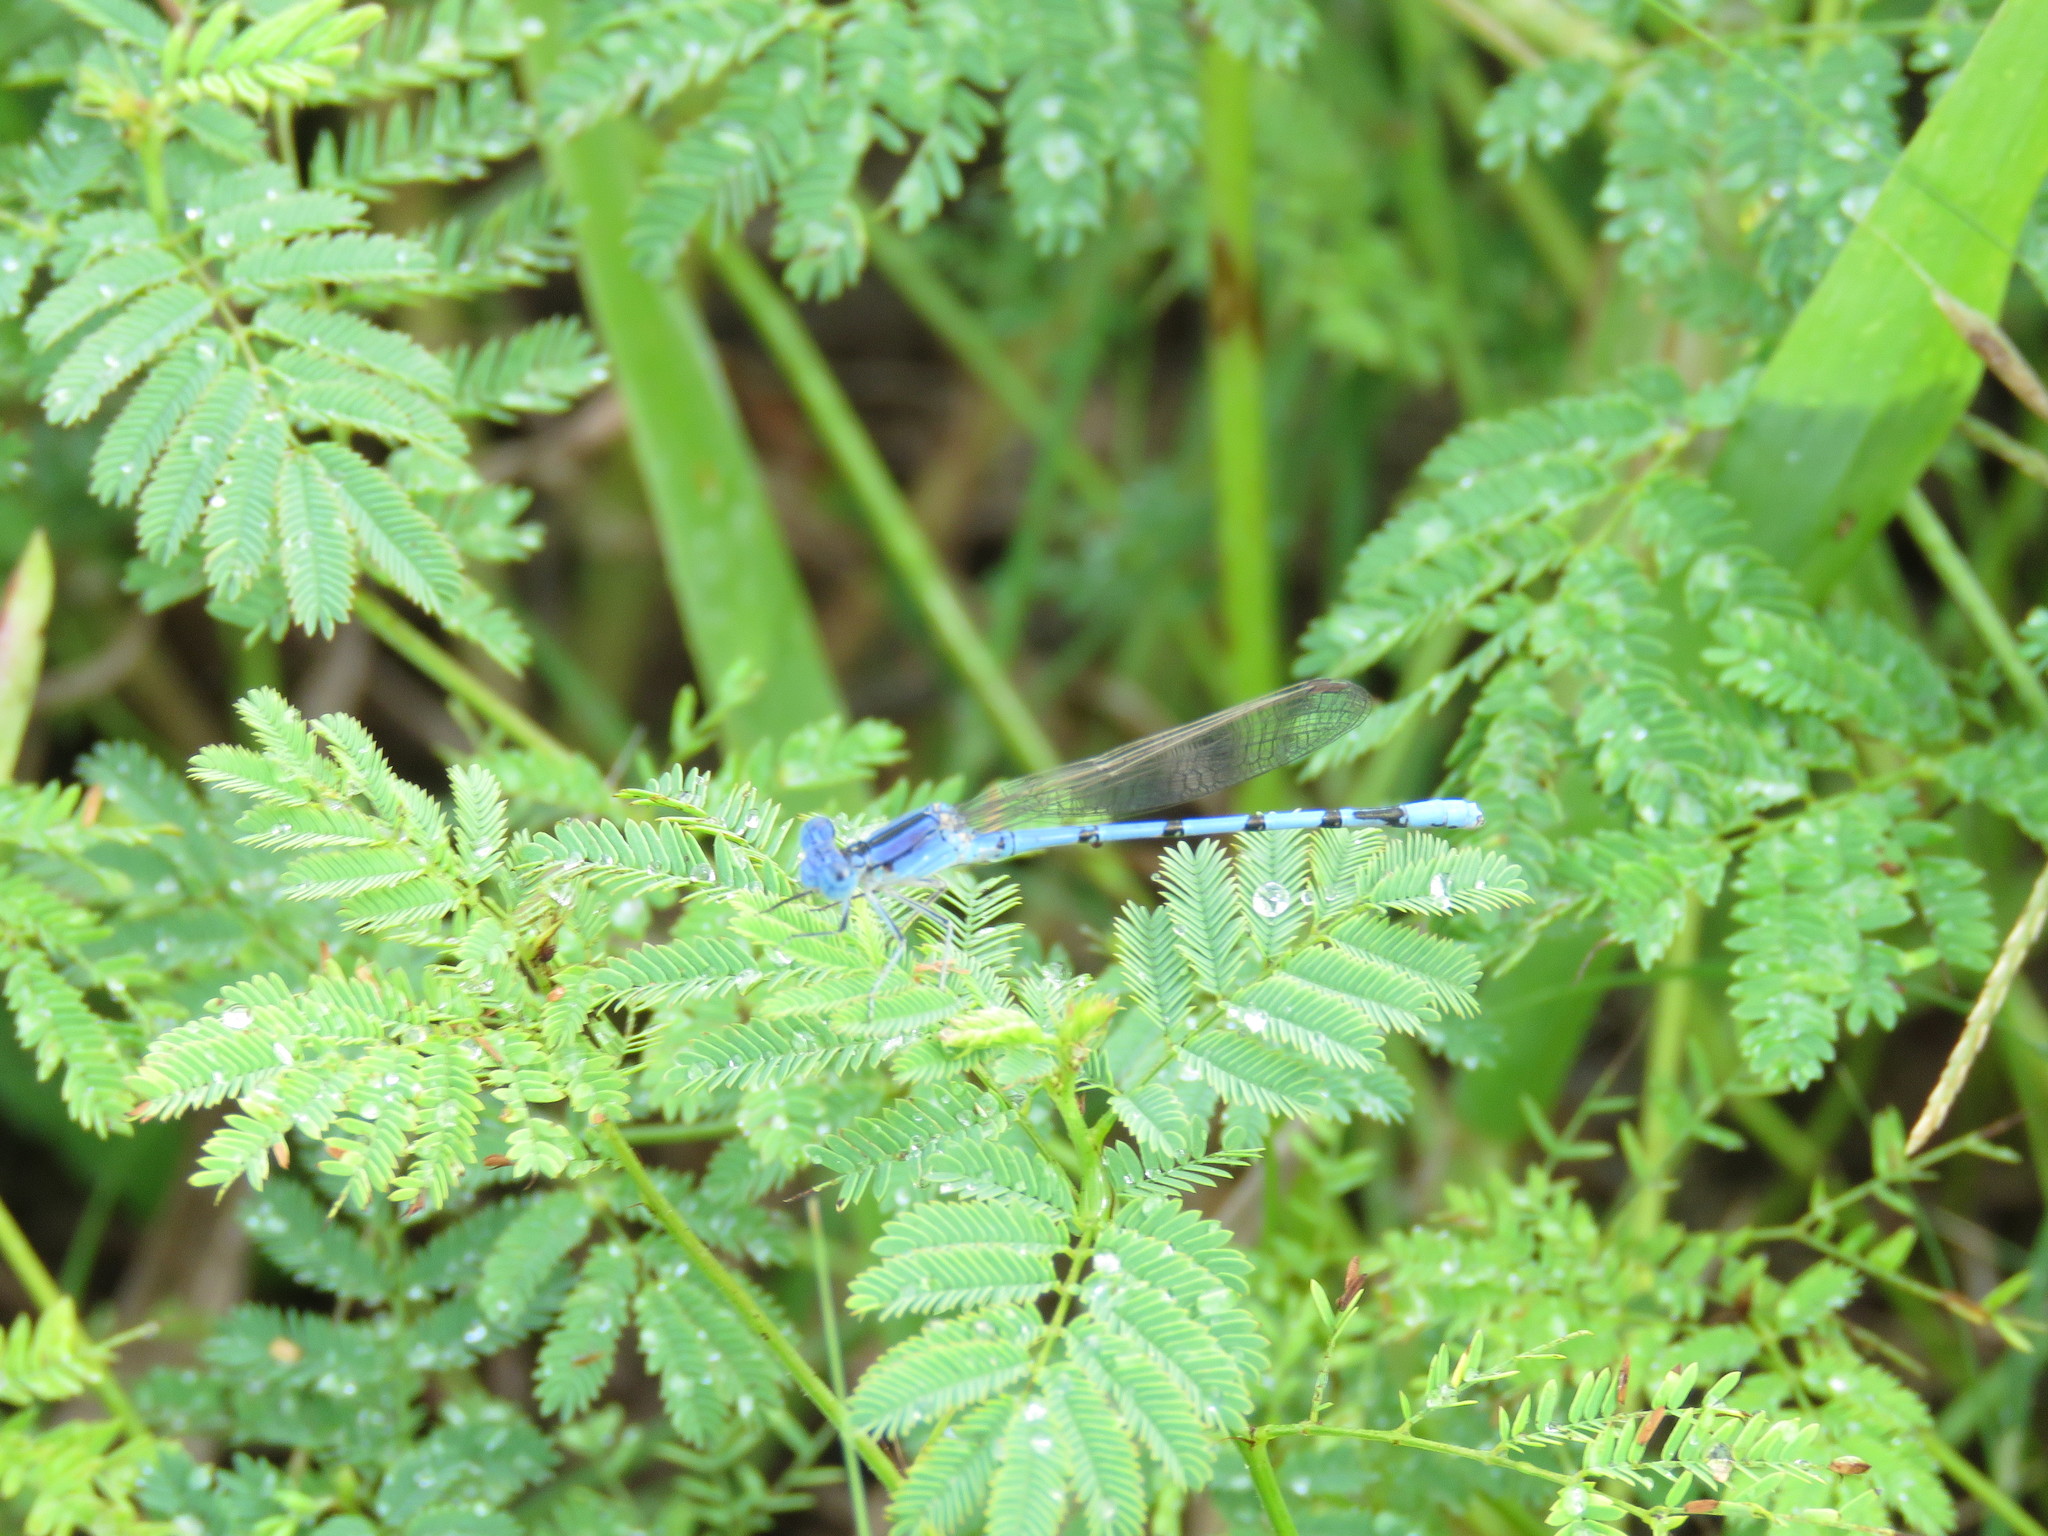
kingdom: Animalia
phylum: Arthropoda
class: Insecta
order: Odonata
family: Coenagrionidae
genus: Argia
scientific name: Argia nahuana
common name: Aztec dancer
